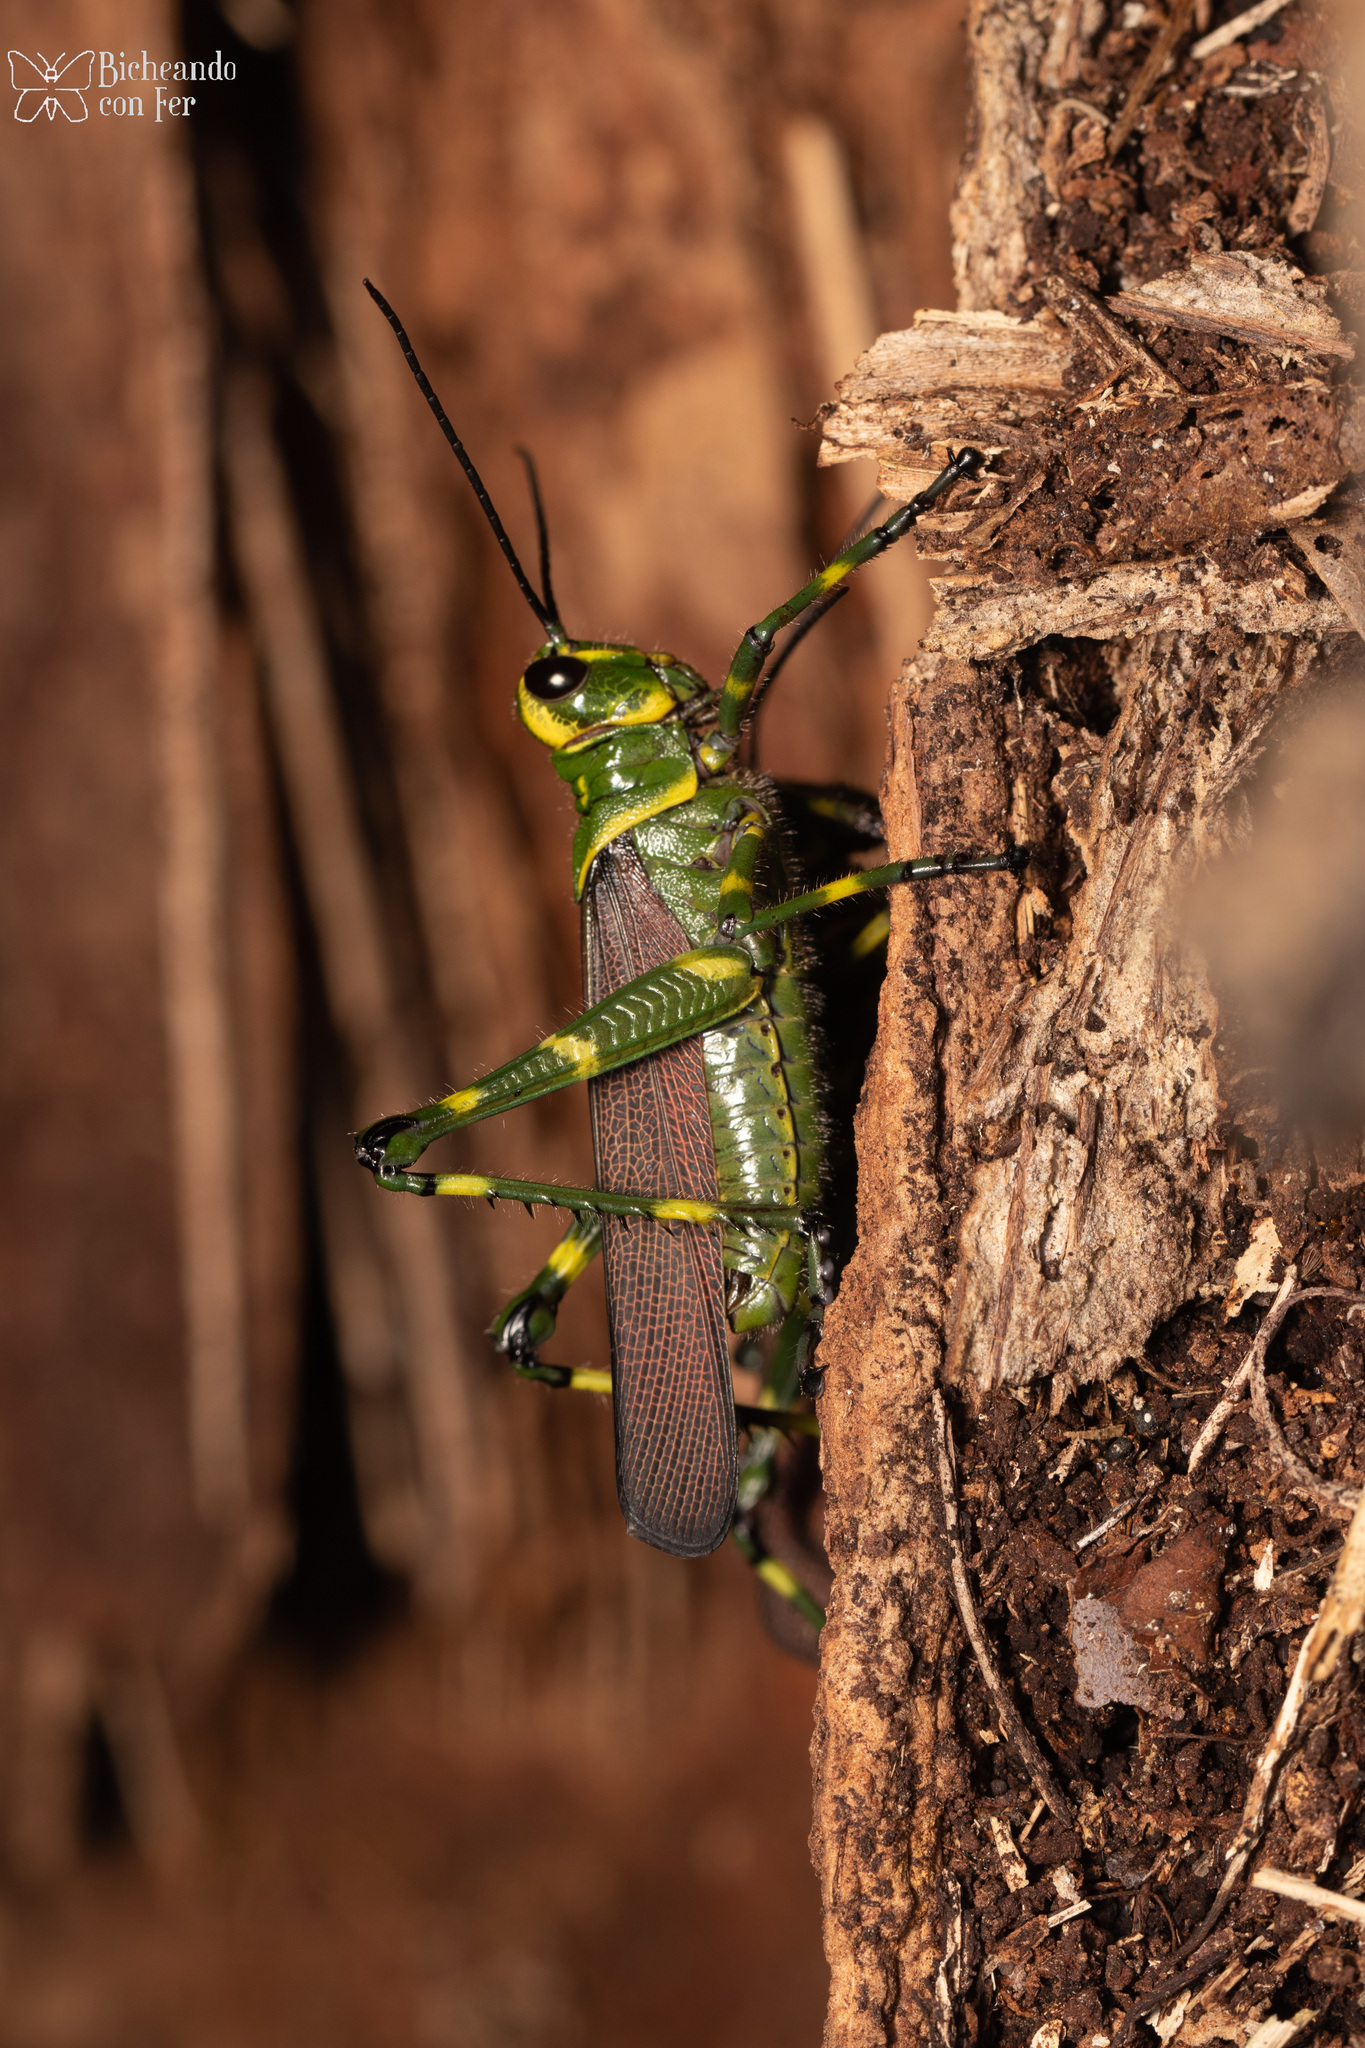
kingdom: Animalia
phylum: Arthropoda
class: Insecta
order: Orthoptera
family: Romaleidae
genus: Chromacris
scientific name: Chromacris miles
